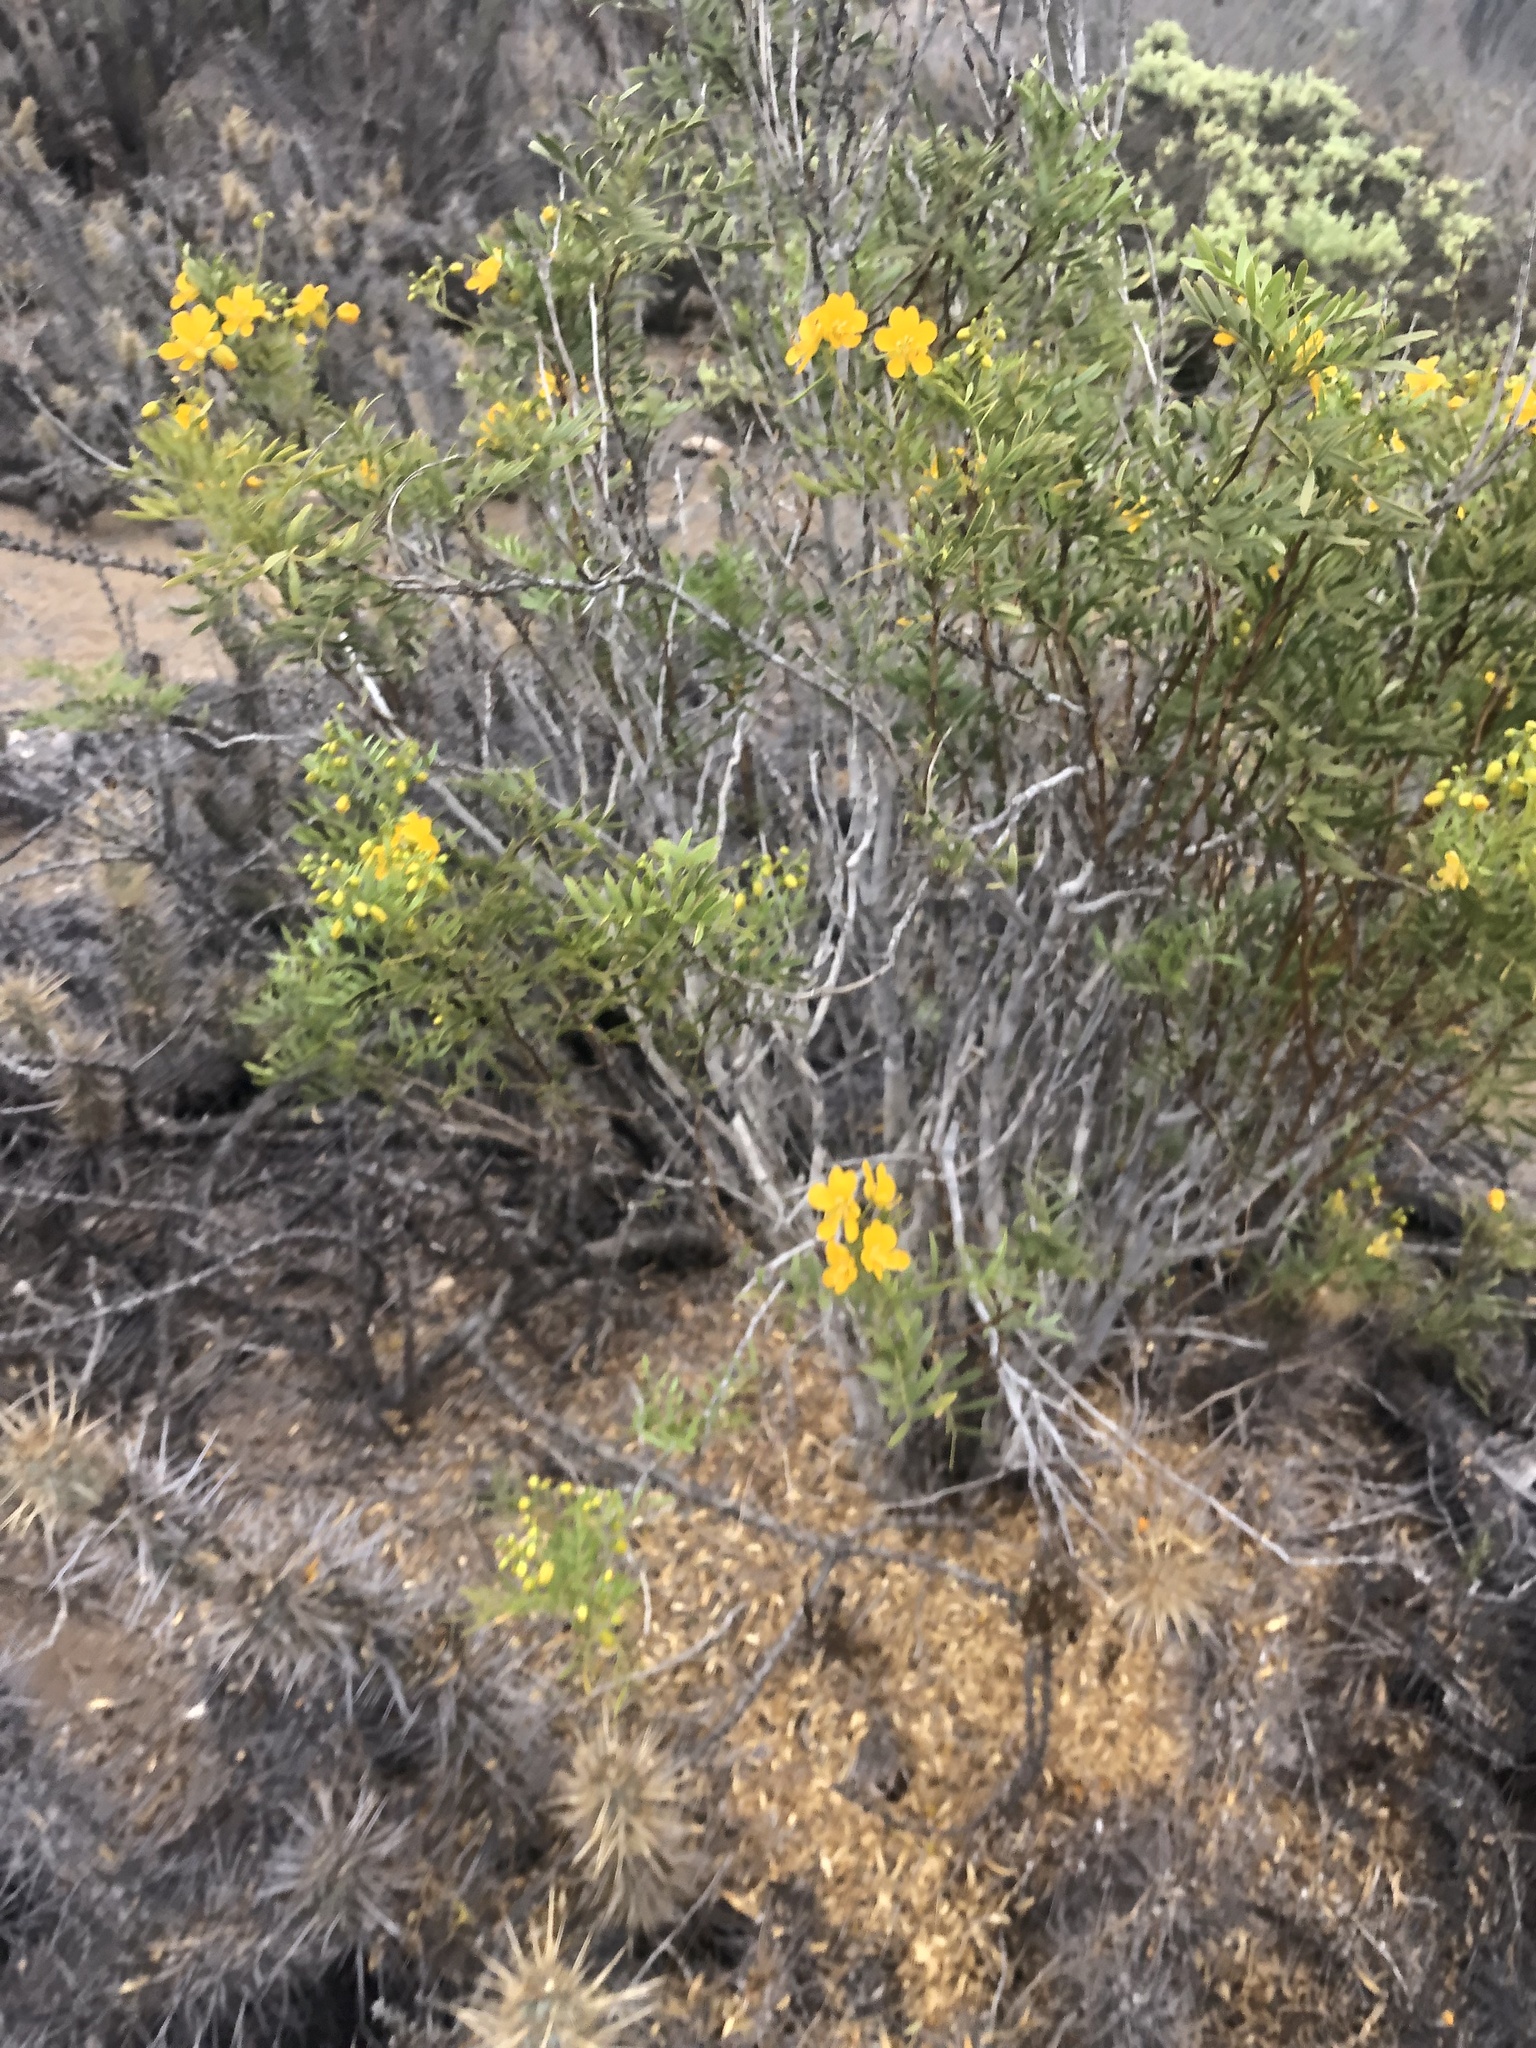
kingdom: Plantae
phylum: Tracheophyta
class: Magnoliopsida
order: Fabales
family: Fabaceae
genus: Senna
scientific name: Senna cumingii
